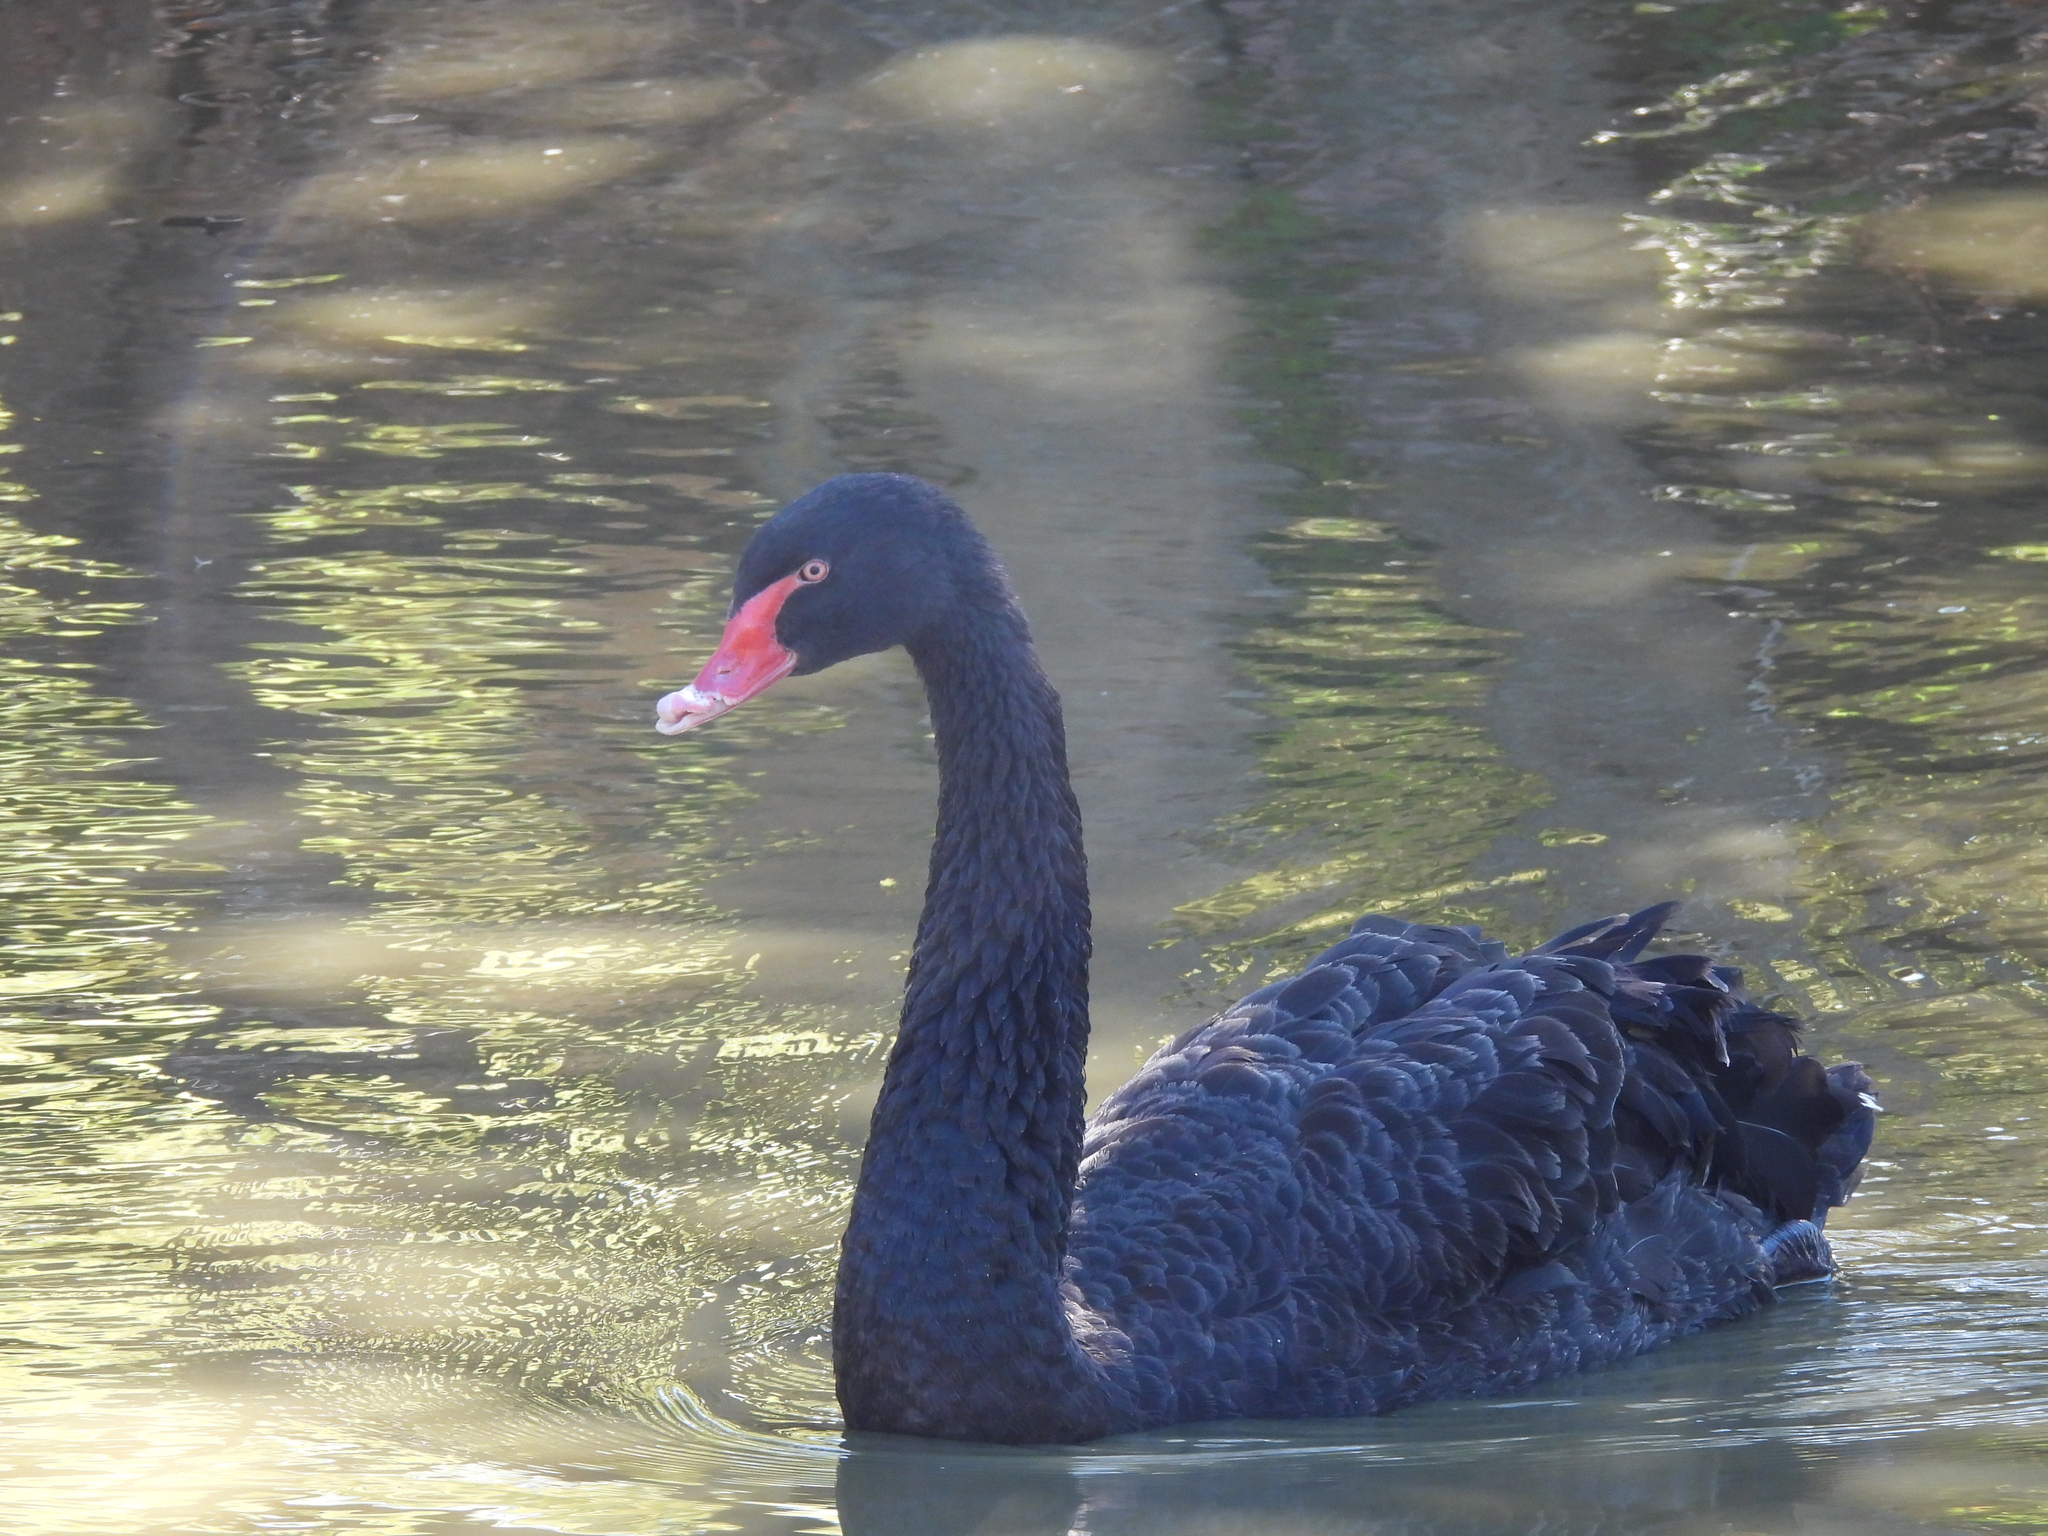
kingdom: Animalia
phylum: Chordata
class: Aves
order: Anseriformes
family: Anatidae
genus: Cygnus
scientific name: Cygnus atratus
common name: Black swan
